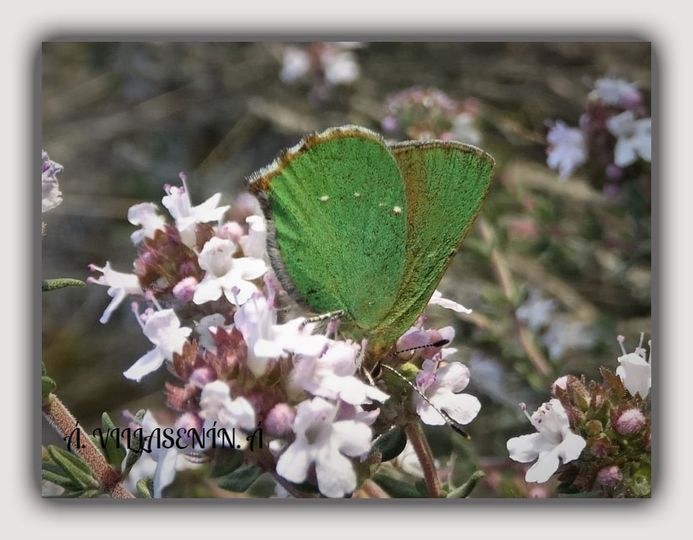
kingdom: Animalia
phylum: Arthropoda
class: Insecta
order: Lepidoptera
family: Lycaenidae
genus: Callophrys
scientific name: Callophrys rubi
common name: Green hairstreak
